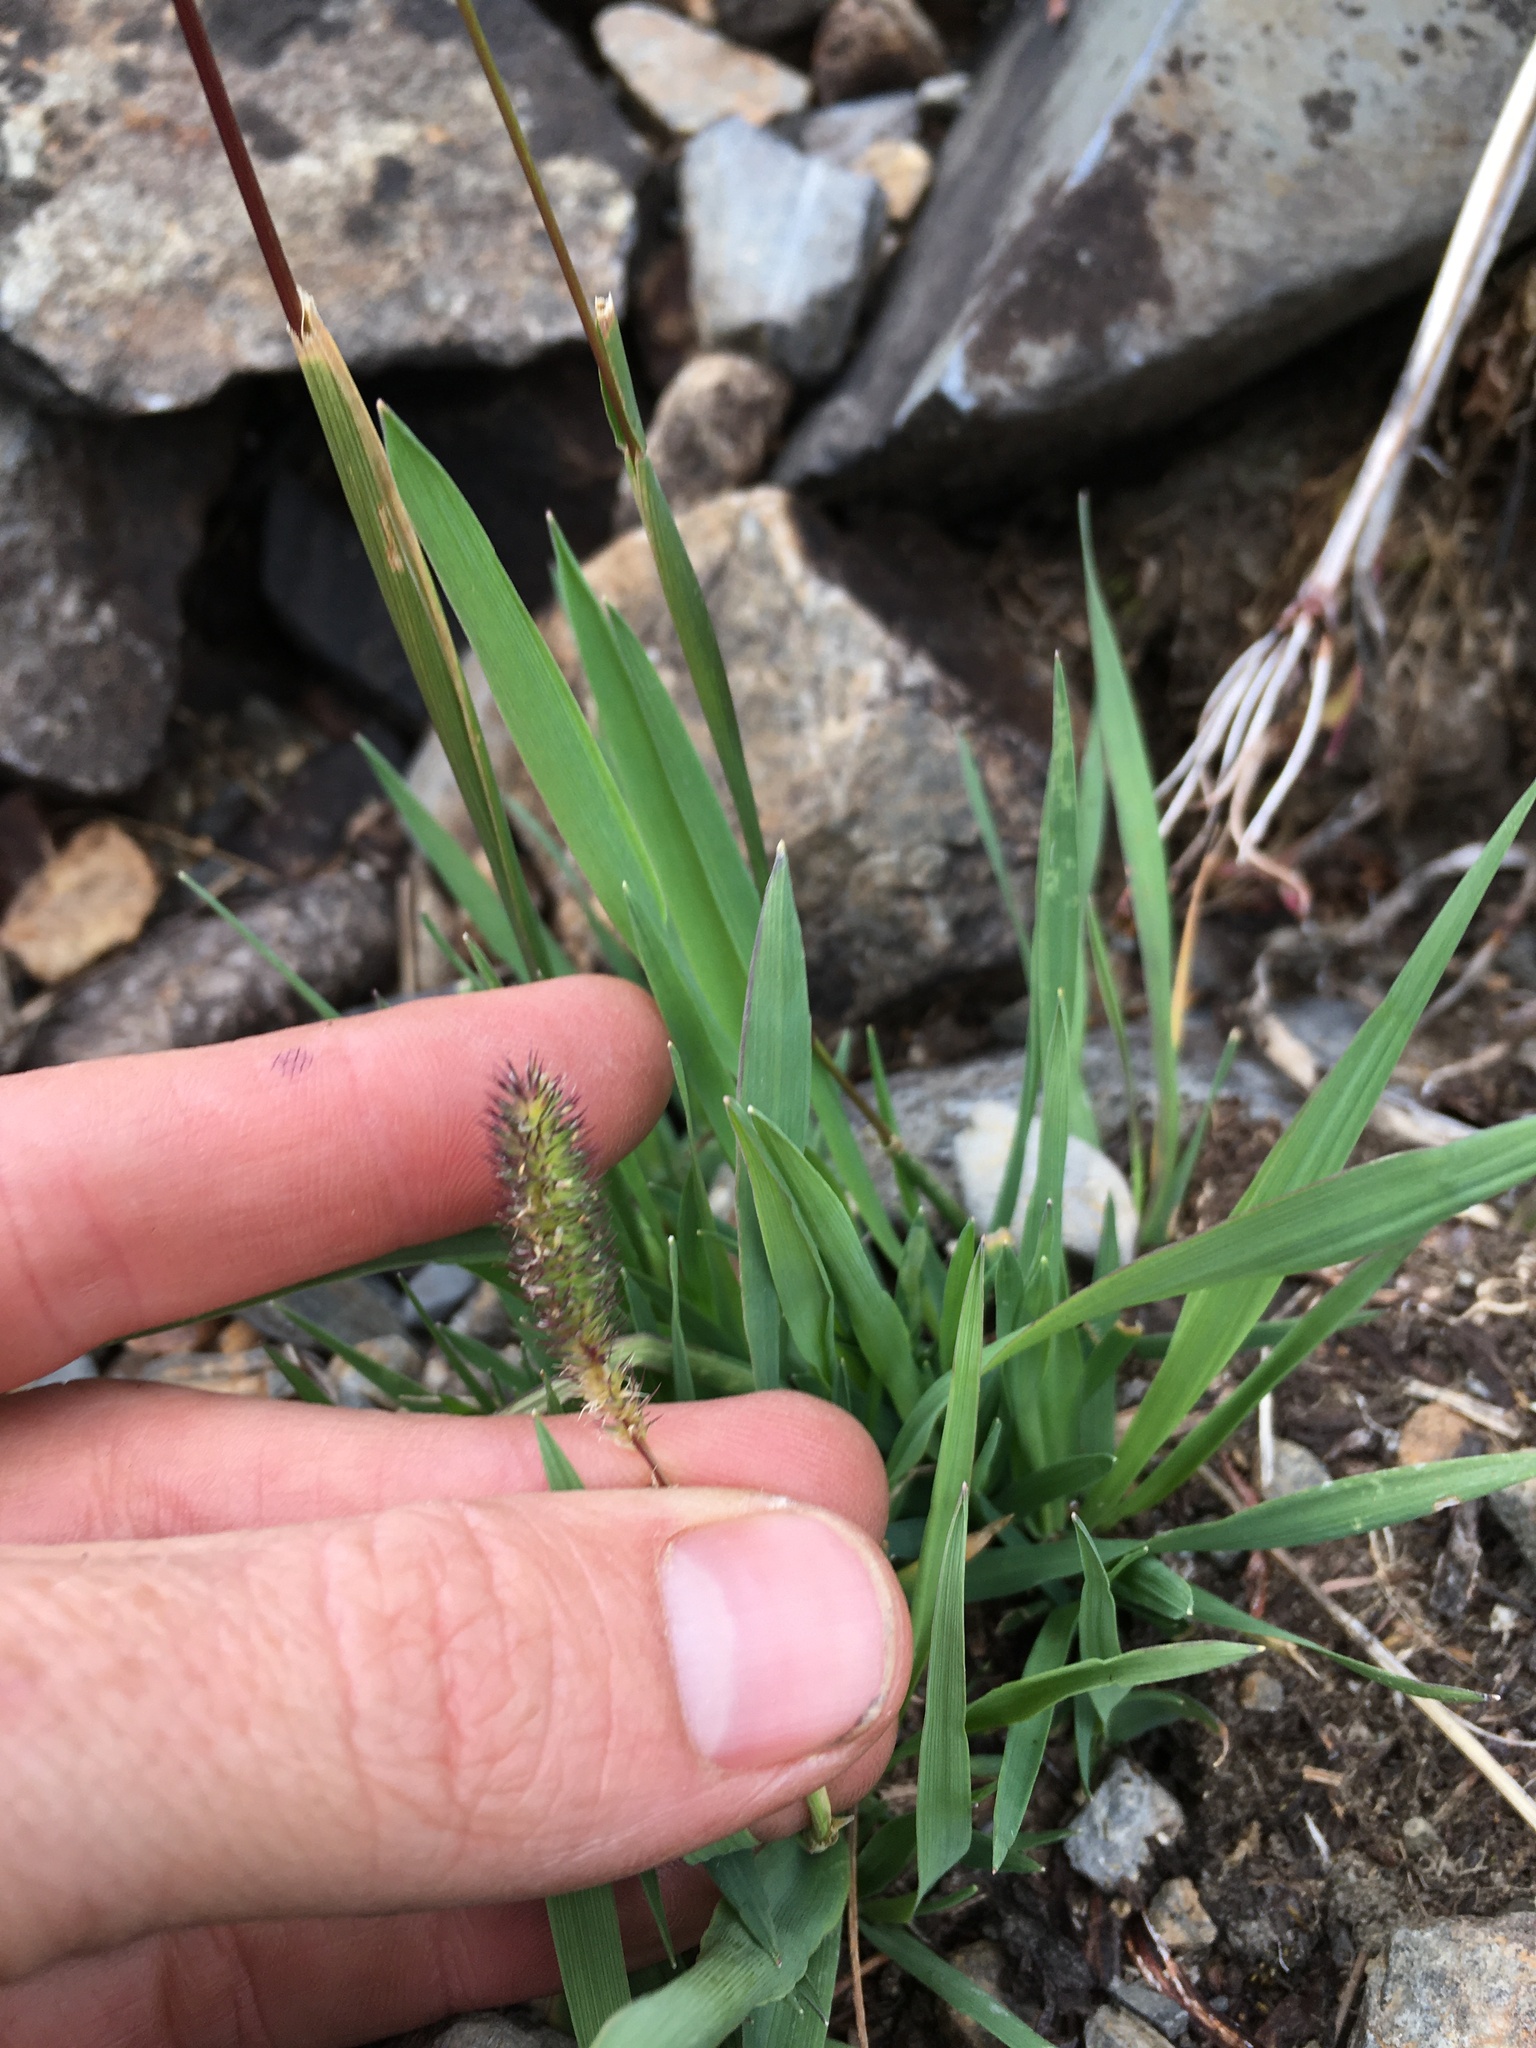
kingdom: Plantae
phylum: Tracheophyta
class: Liliopsida
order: Poales
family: Poaceae
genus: Phleum
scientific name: Phleum alpinum
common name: Alpine cat's-tail
